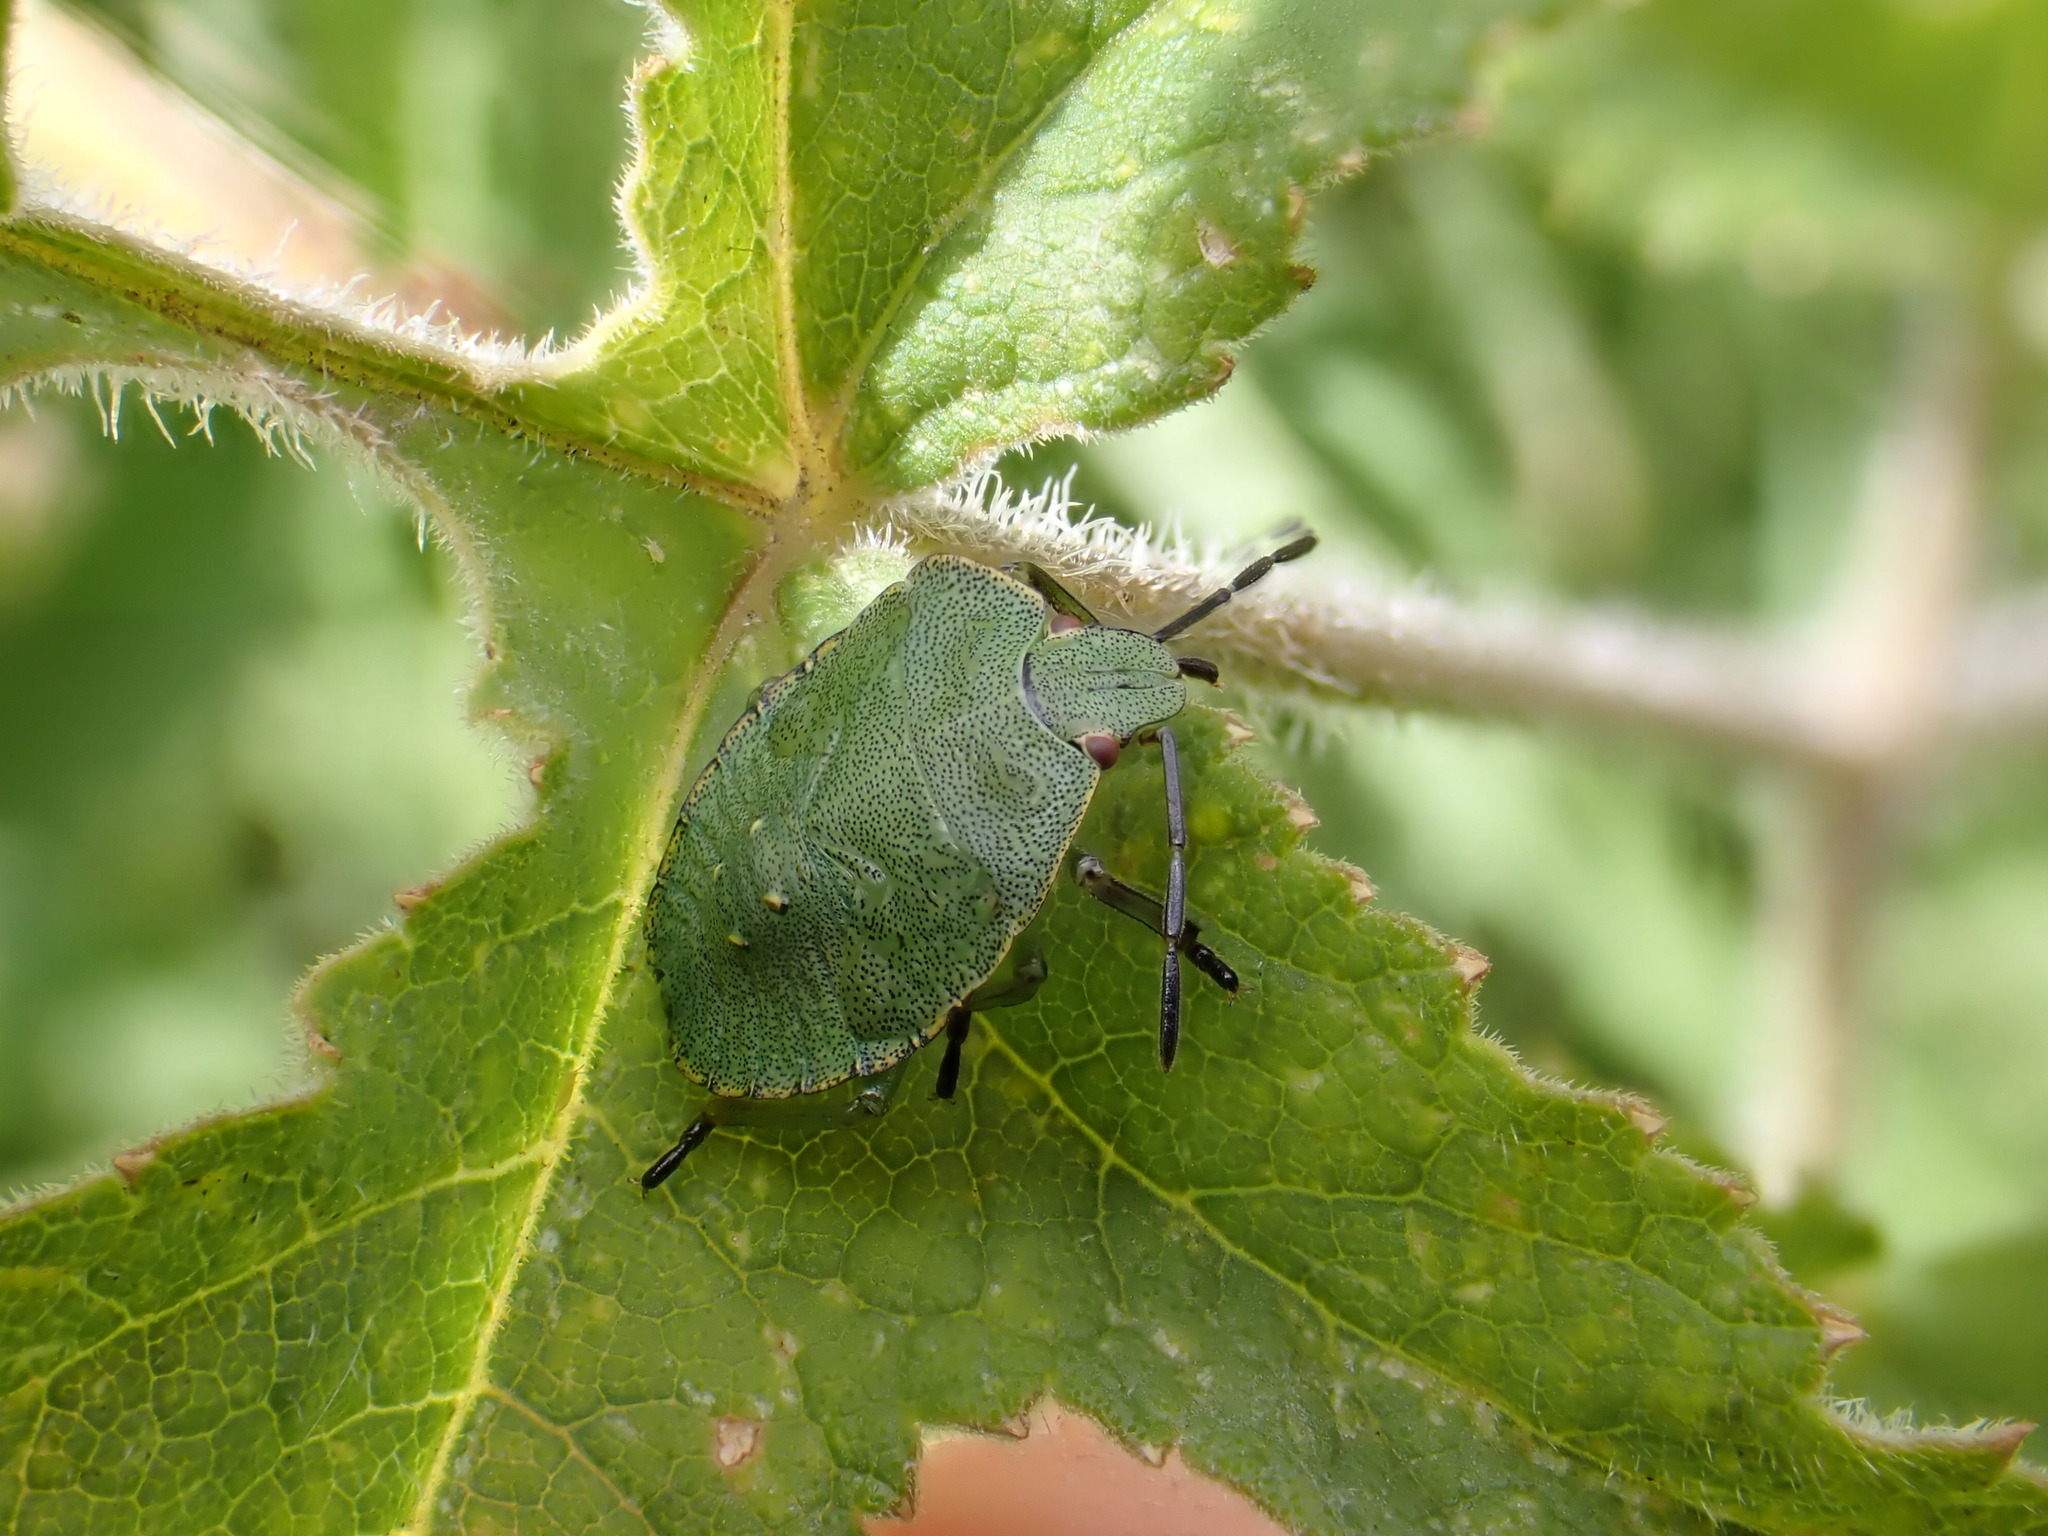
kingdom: Animalia
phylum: Arthropoda
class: Insecta
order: Hemiptera
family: Pentatomidae
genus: Palomena
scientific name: Palomena prasina
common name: Green shieldbug
